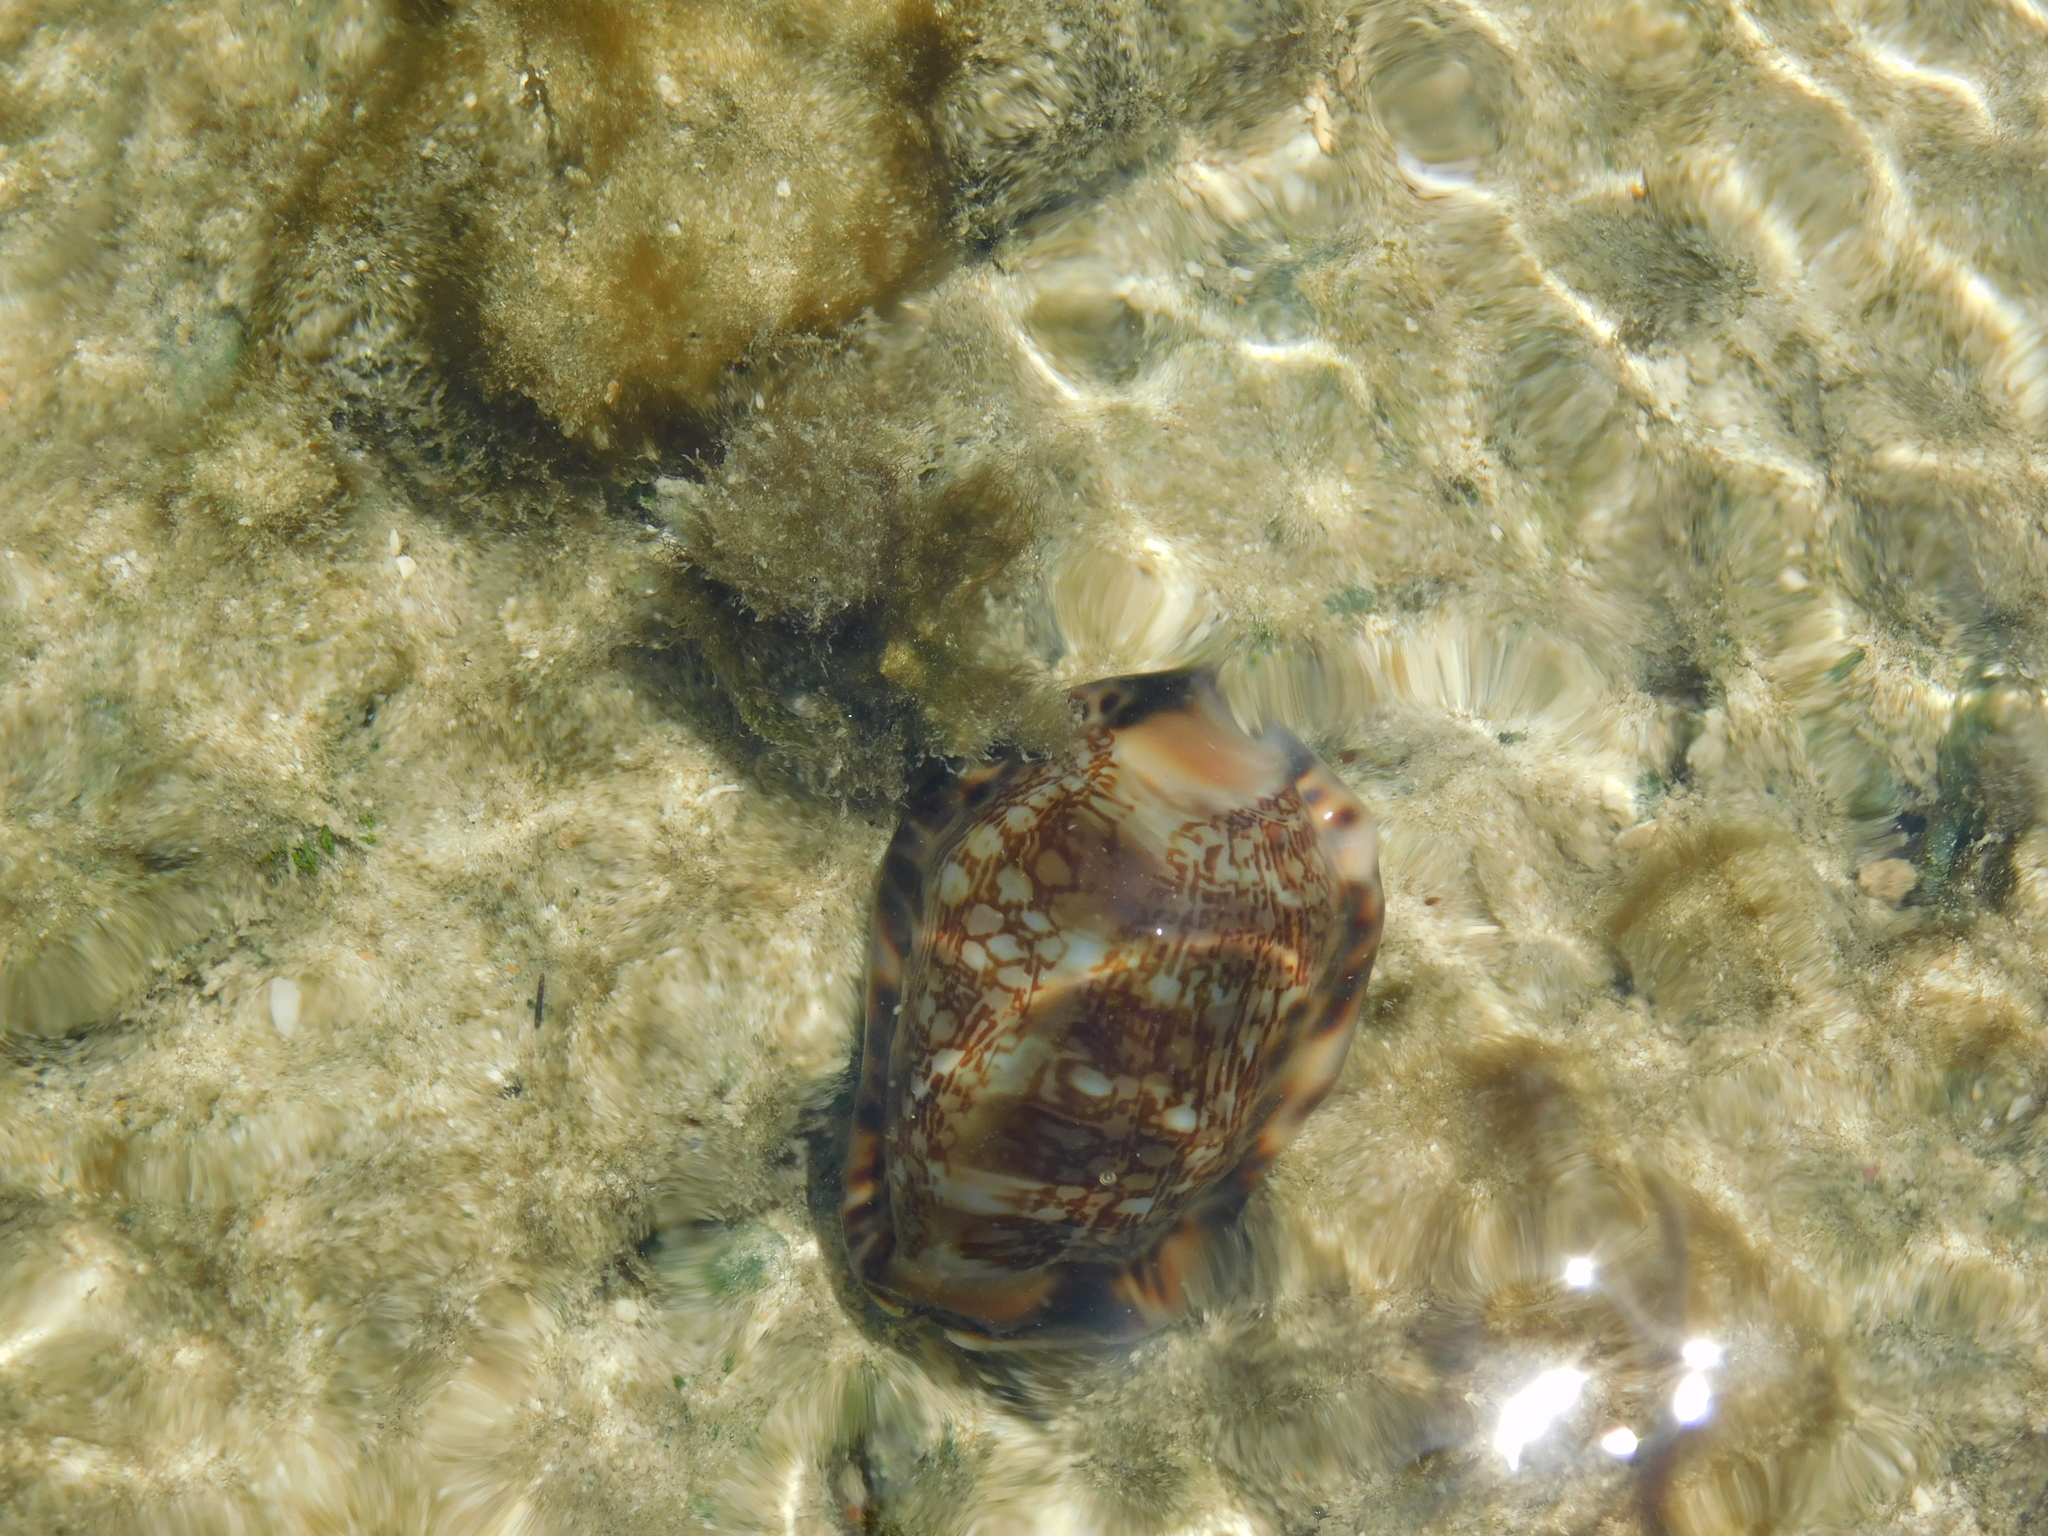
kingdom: Animalia
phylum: Mollusca
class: Gastropoda
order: Littorinimorpha
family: Cypraeidae
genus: Mauritia
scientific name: Mauritia arabica
